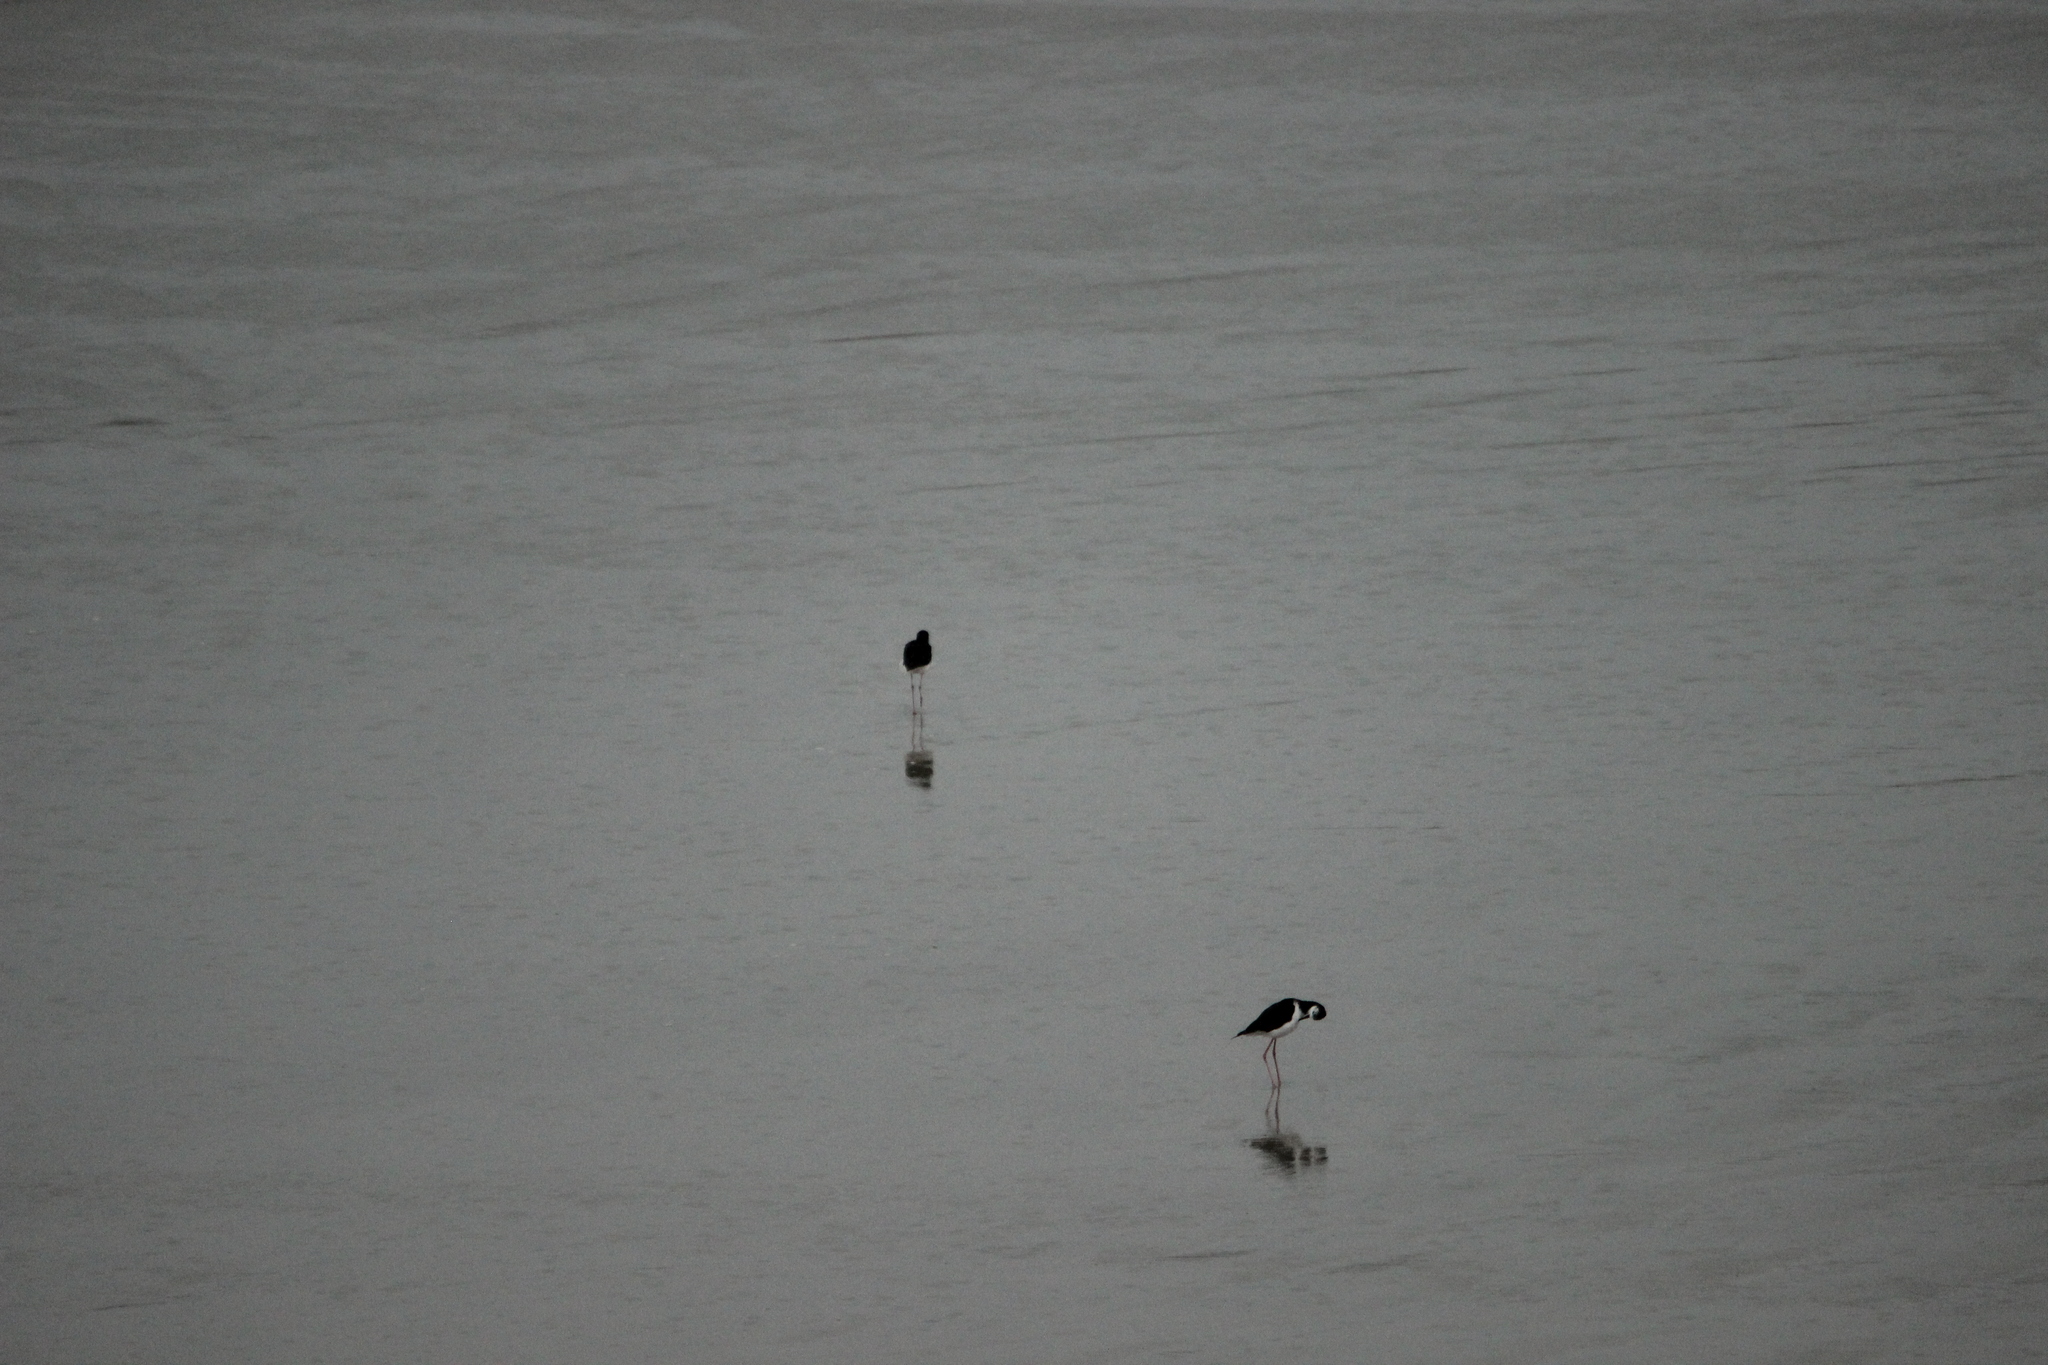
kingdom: Animalia
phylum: Chordata
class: Aves
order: Charadriiformes
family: Recurvirostridae
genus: Himantopus
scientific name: Himantopus leucocephalus
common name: White-headed stilt
